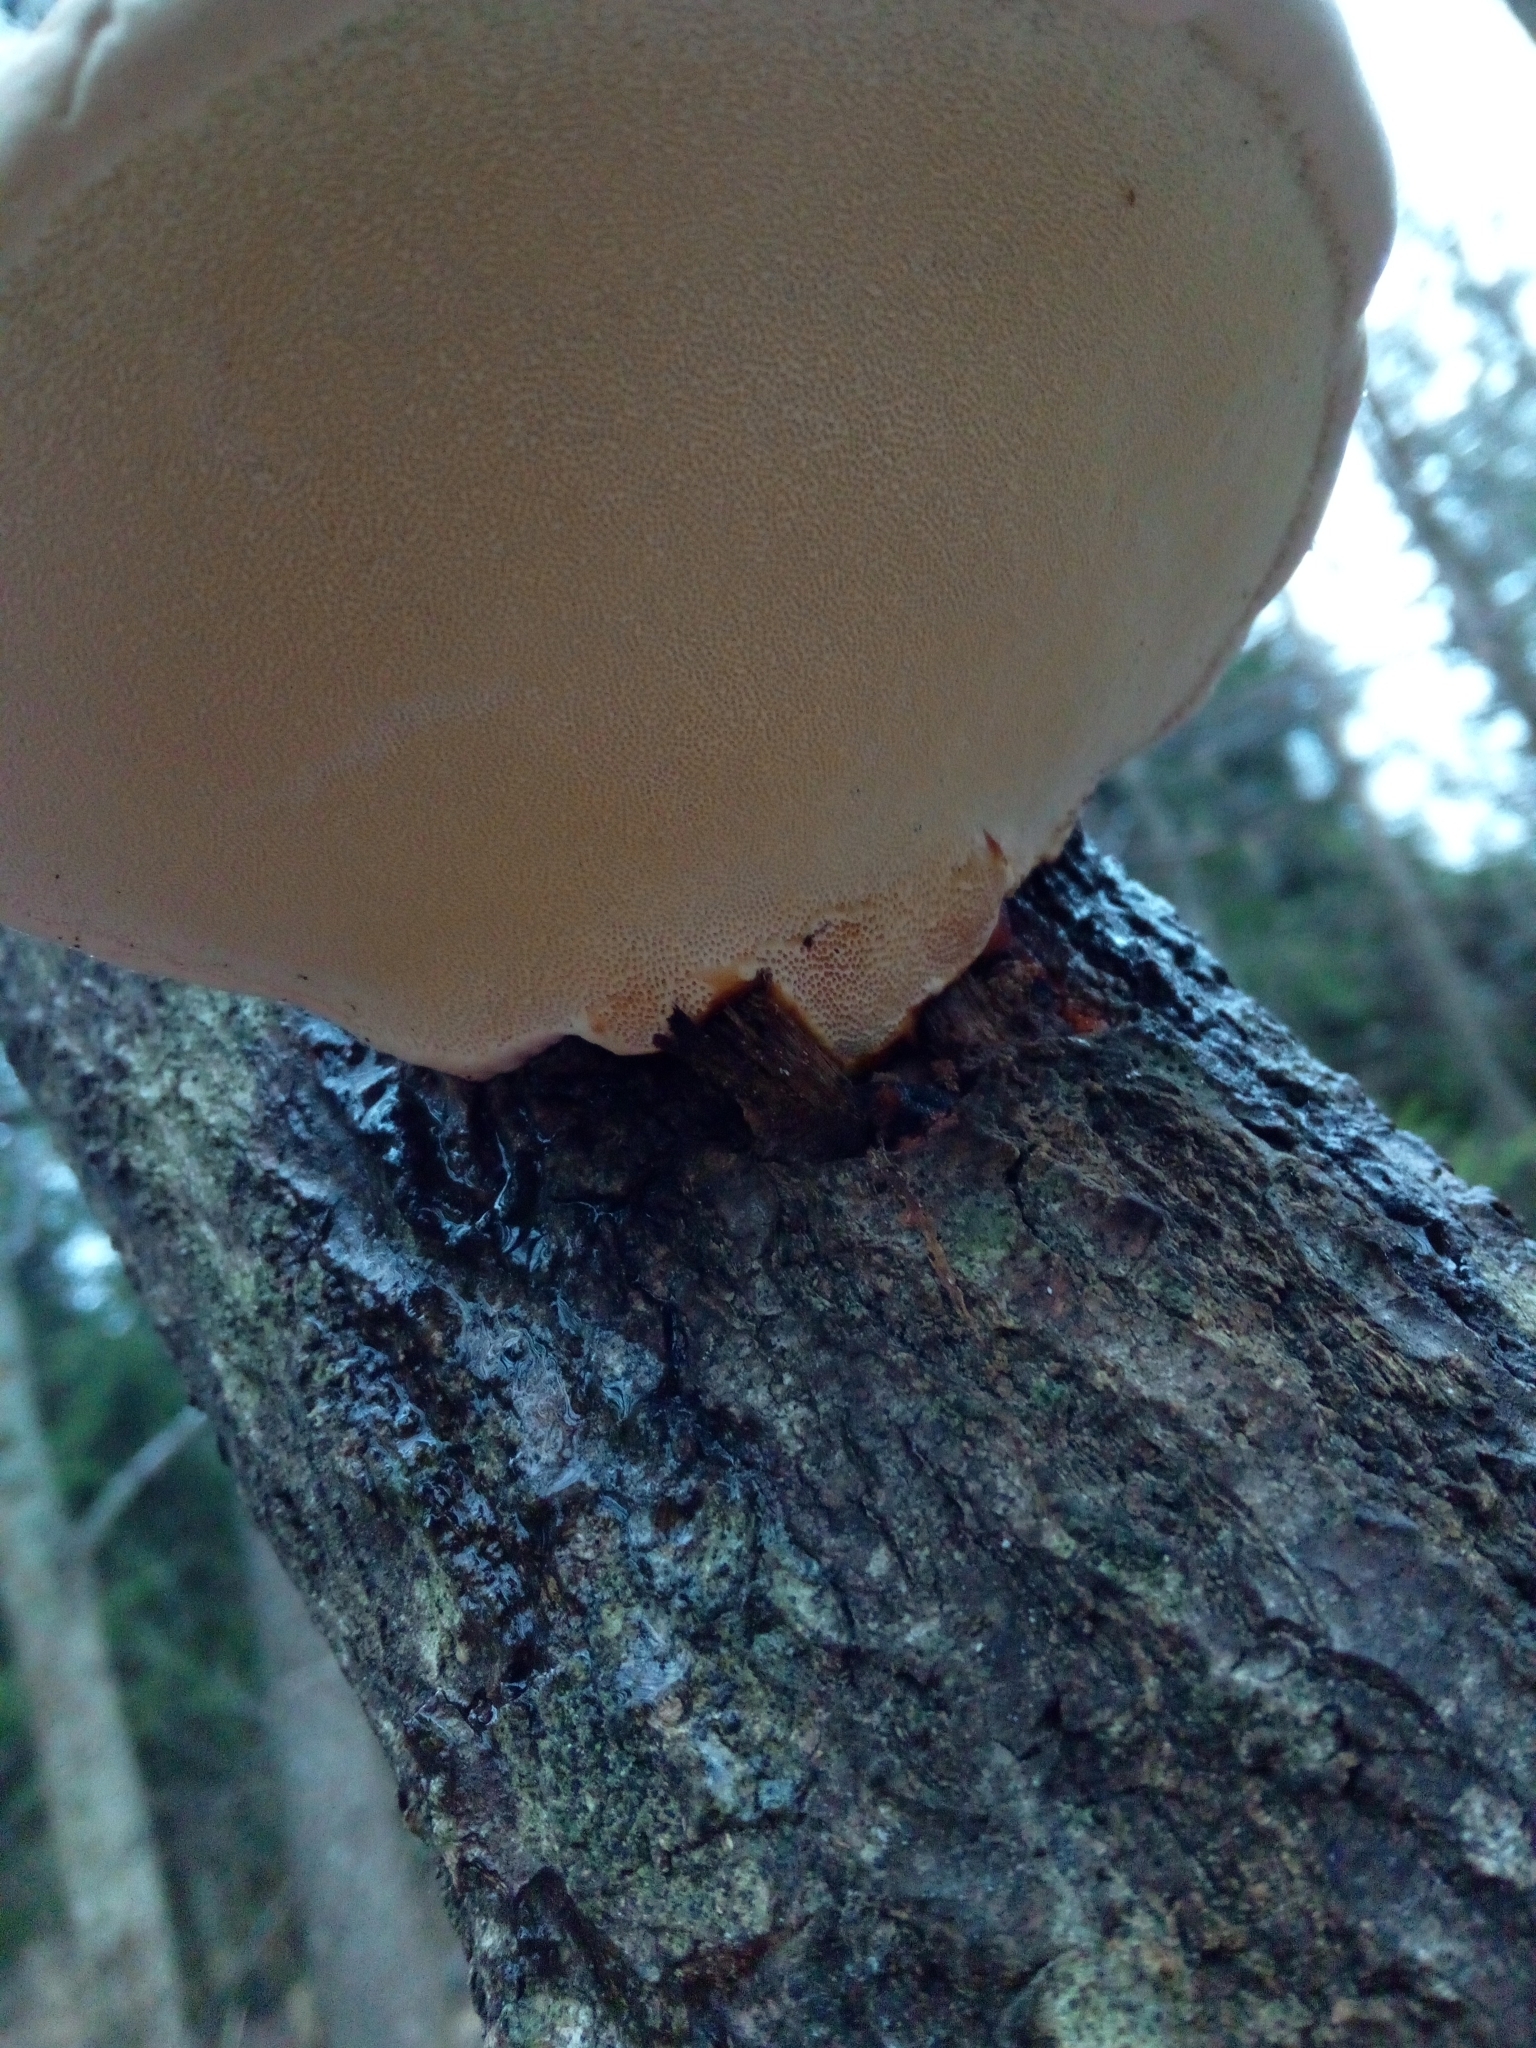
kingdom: Fungi
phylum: Basidiomycota
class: Agaricomycetes
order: Polyporales
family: Fomitopsidaceae
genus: Fomitopsis
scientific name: Fomitopsis pinicola
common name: Red-belted bracket
